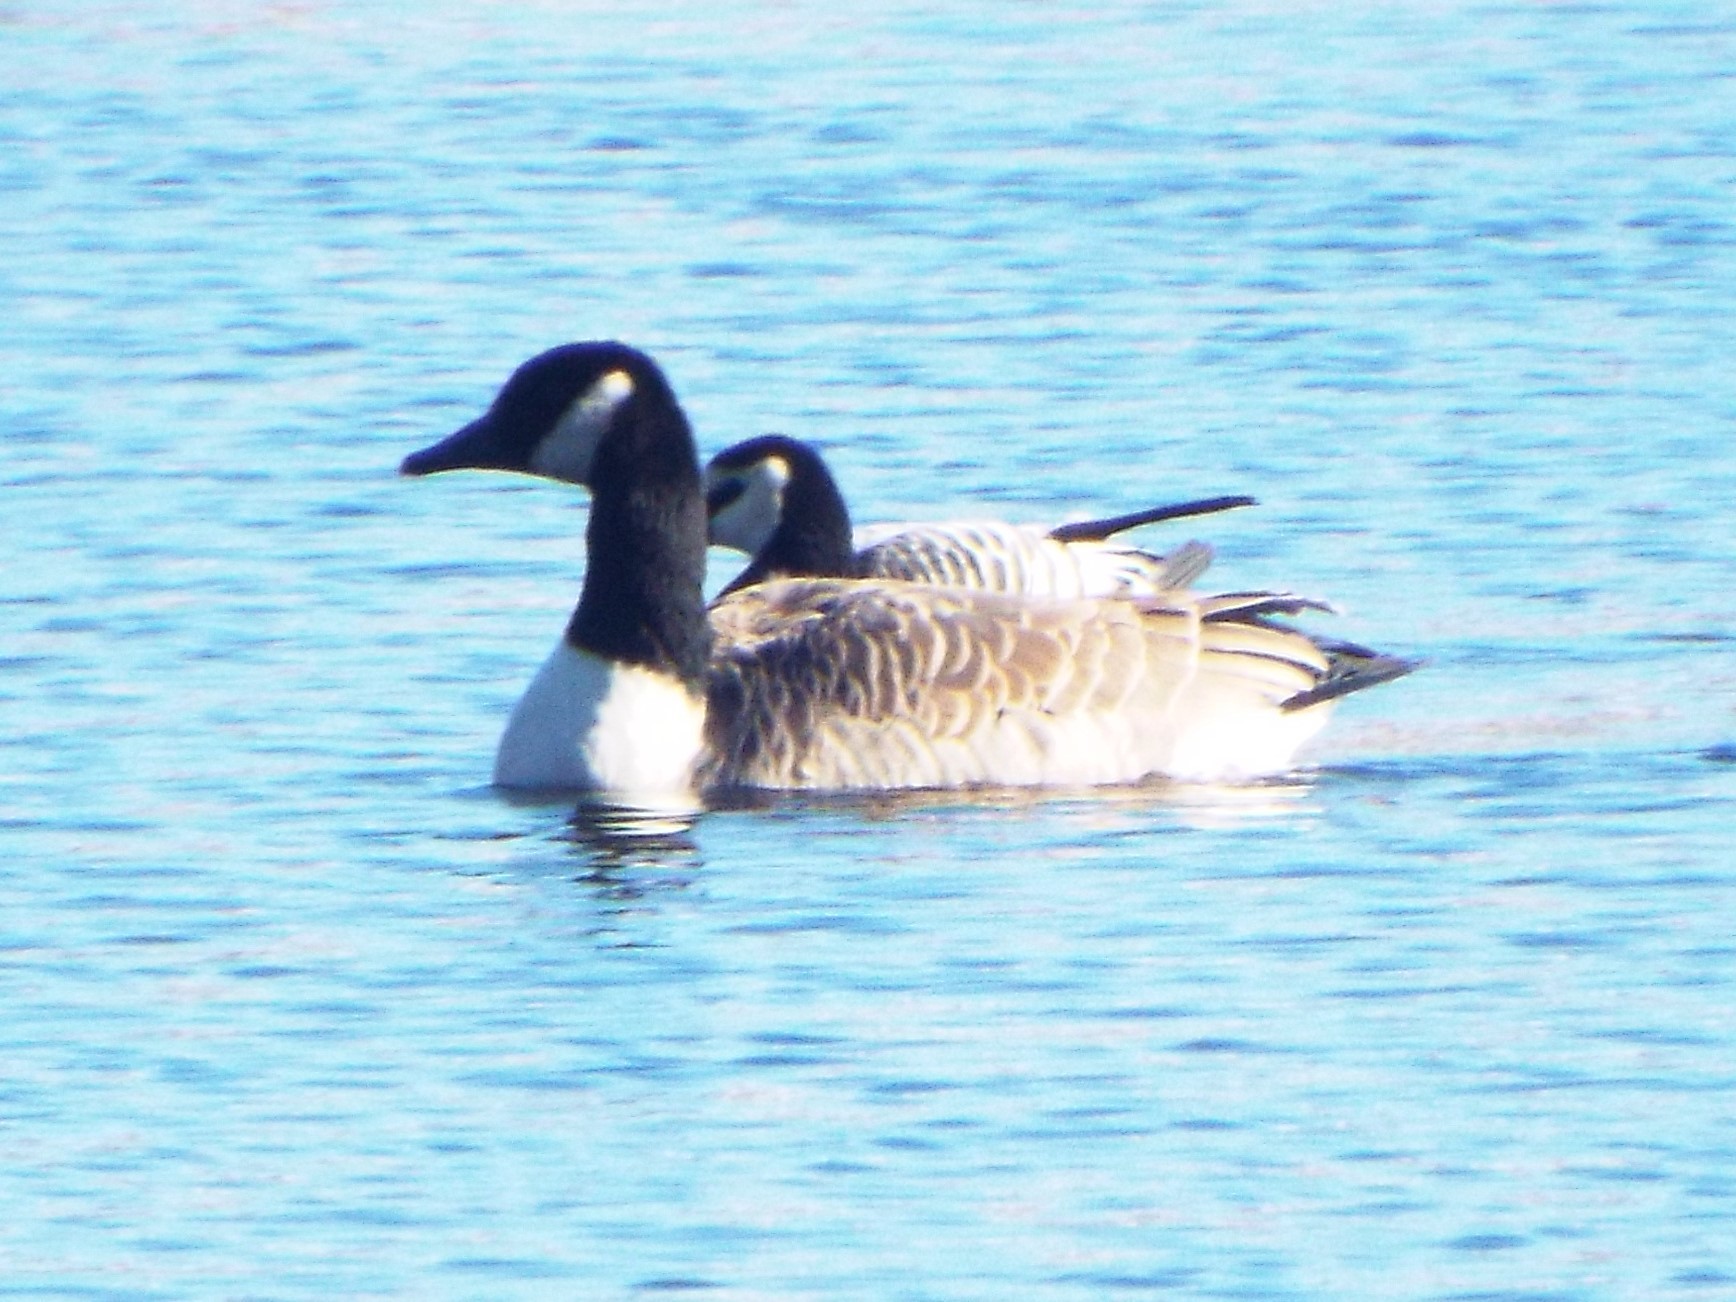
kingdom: Animalia
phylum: Chordata
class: Aves
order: Anseriformes
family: Anatidae
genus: Branta
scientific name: Branta canadensis
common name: Canada goose
